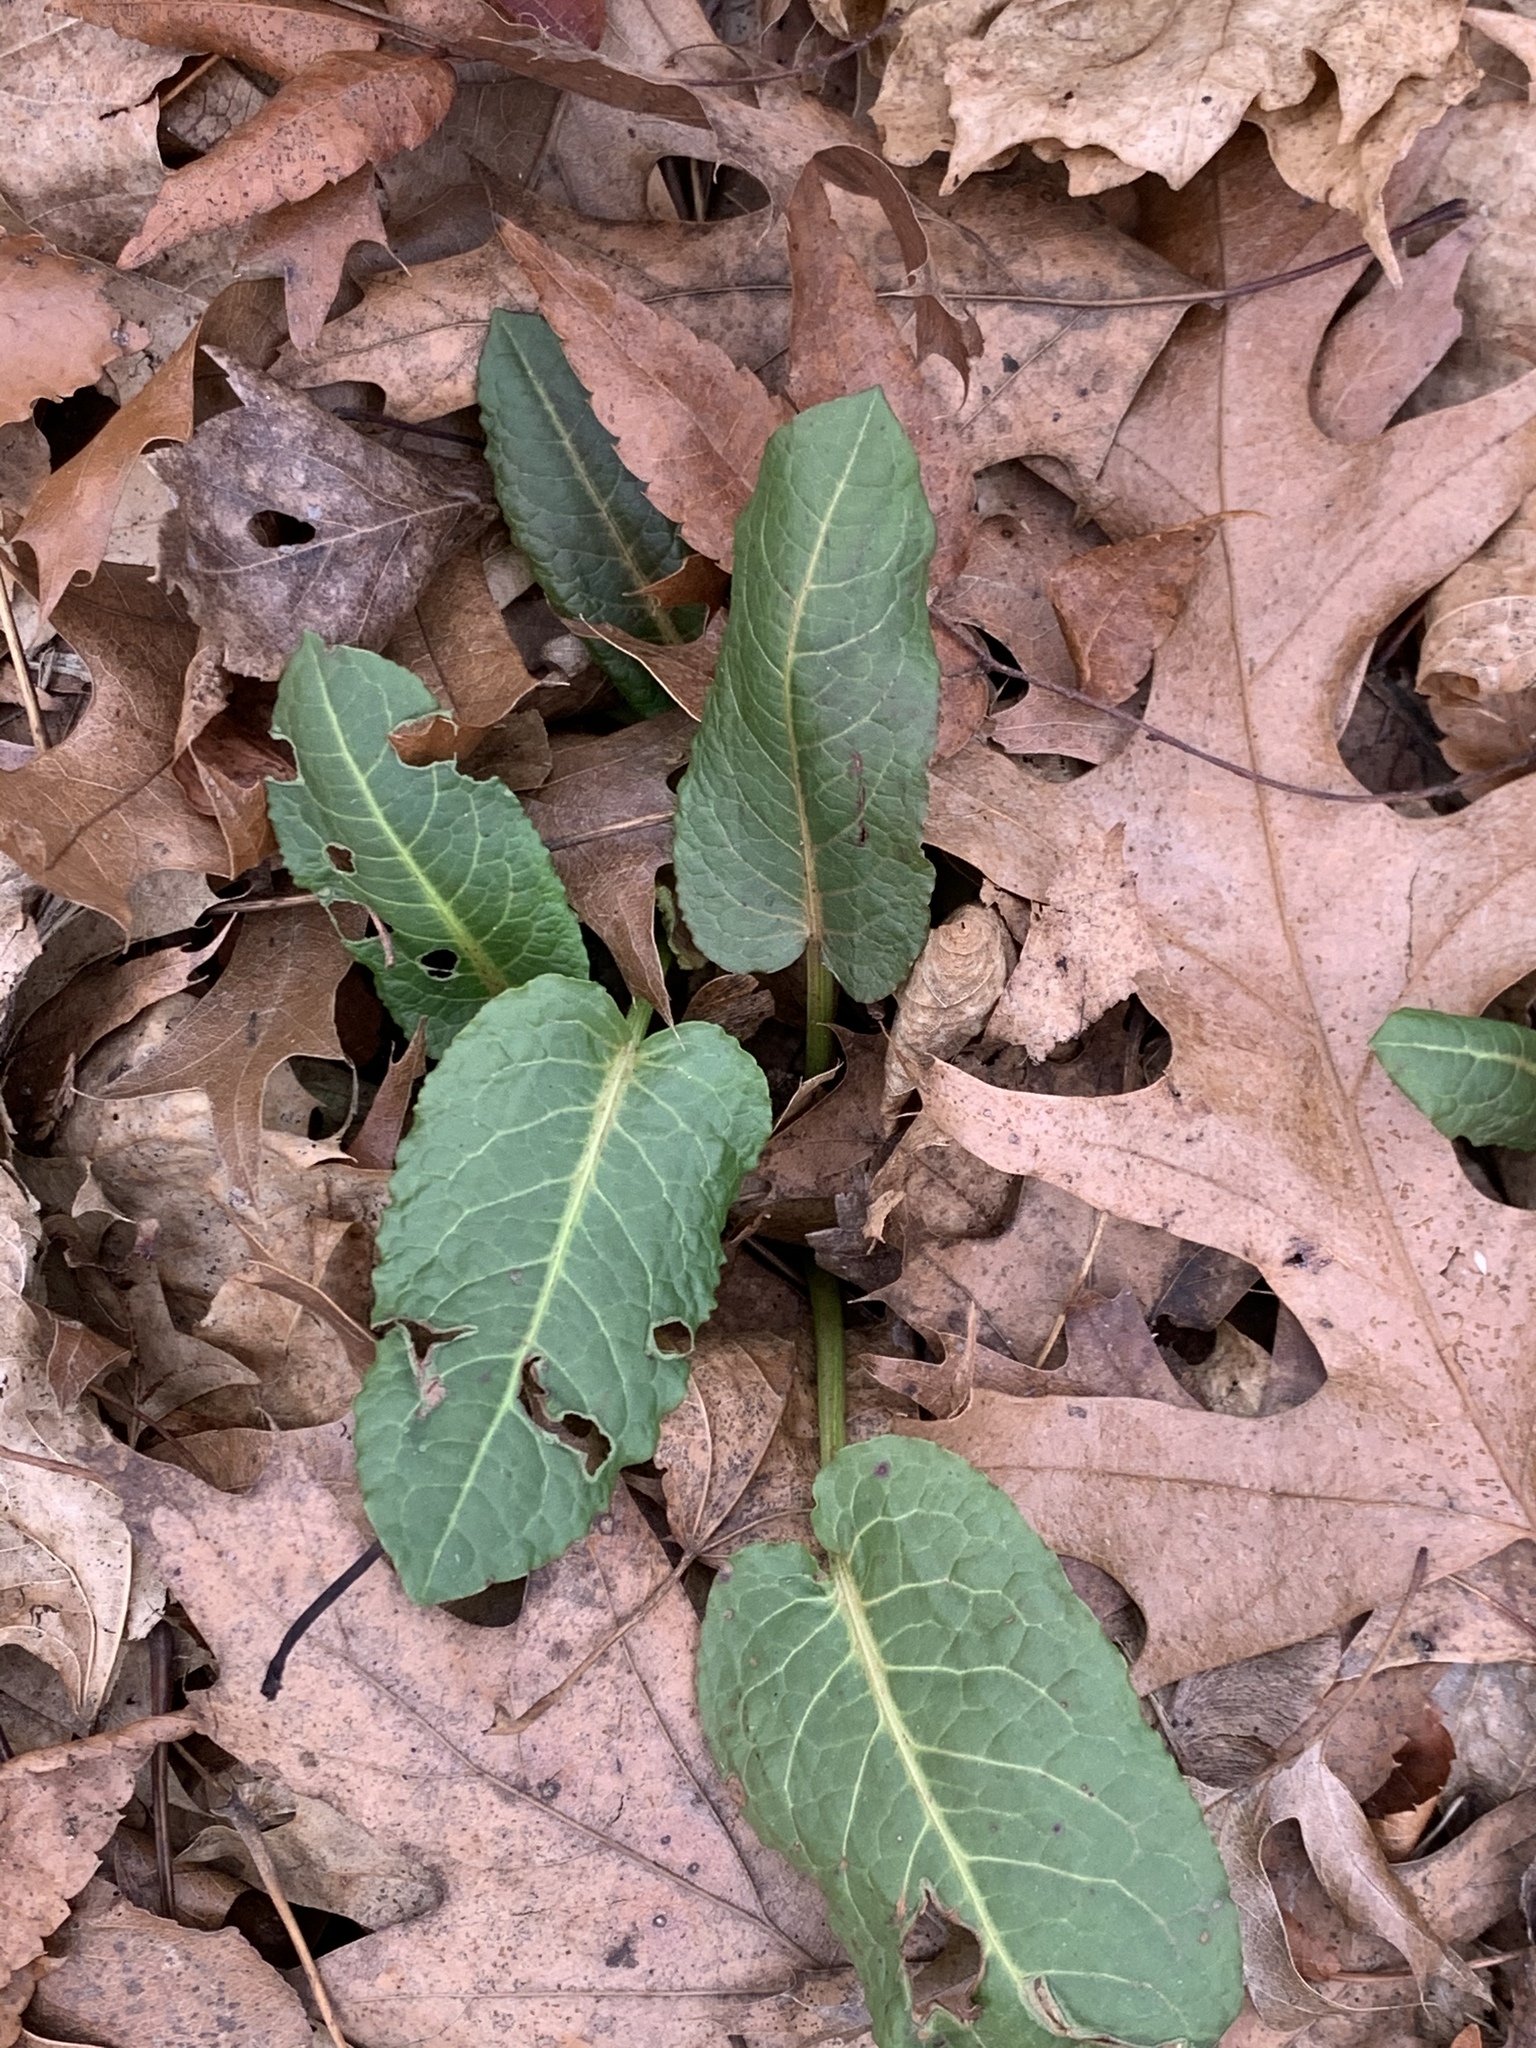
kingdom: Plantae
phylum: Tracheophyta
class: Magnoliopsida
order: Caryophyllales
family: Polygonaceae
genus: Rumex
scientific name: Rumex obtusifolius
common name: Bitter dock
